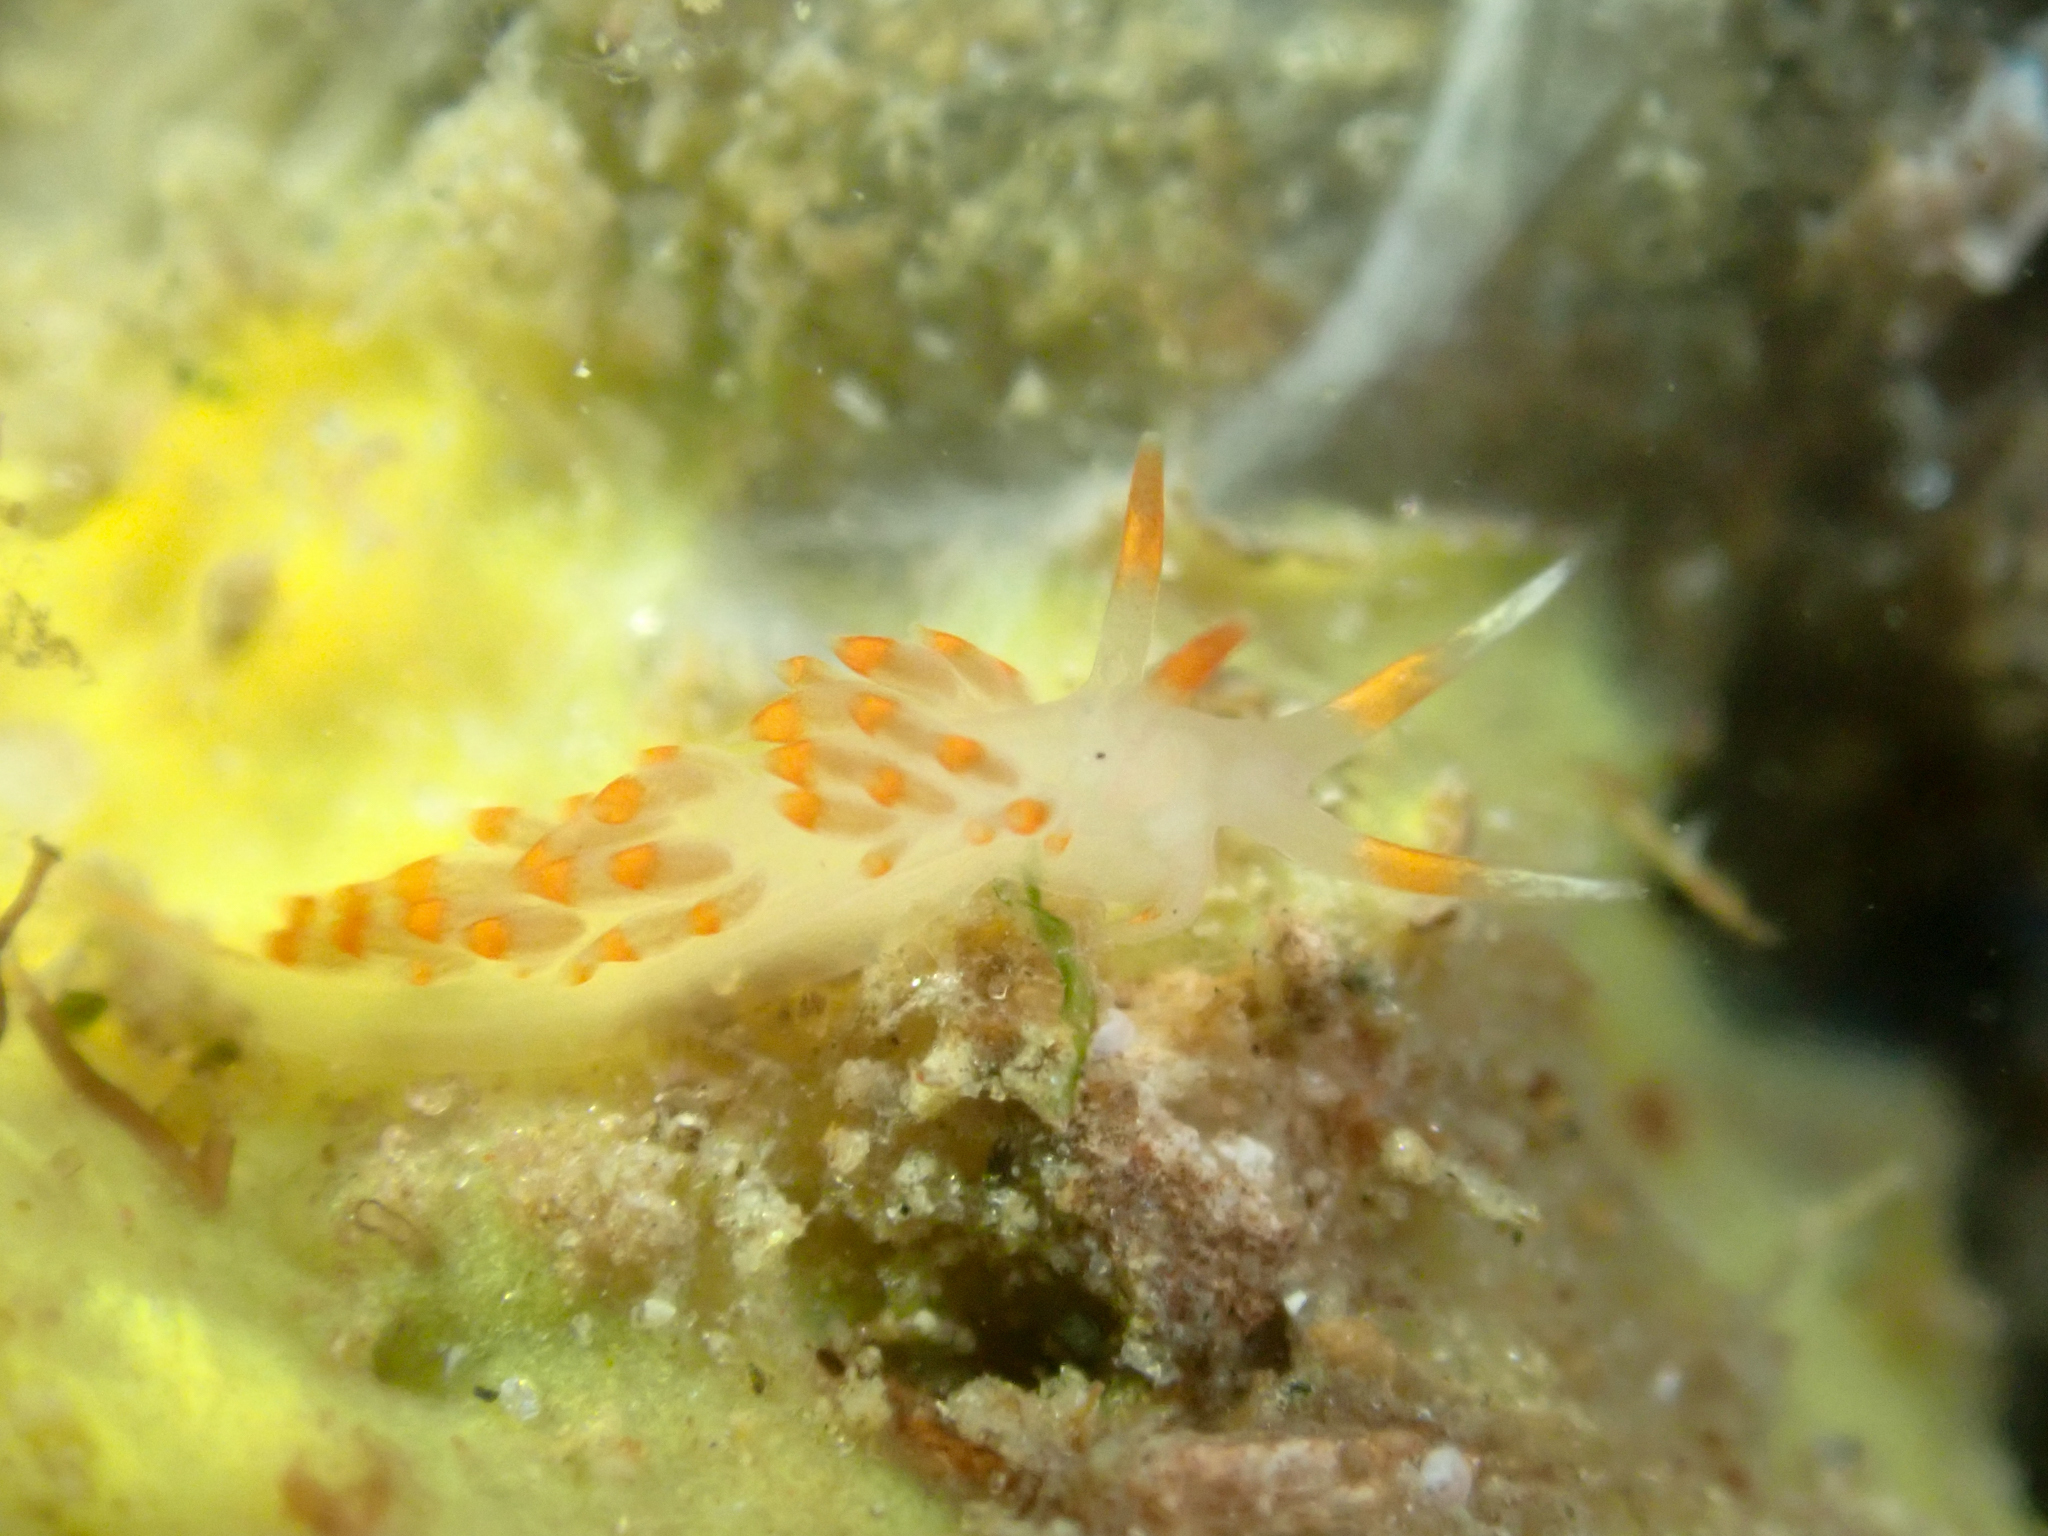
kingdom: Animalia
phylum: Mollusca
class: Gastropoda
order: Nudibranchia
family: Facelinidae
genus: Austraeolis
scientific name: Austraeolis stearnsi
